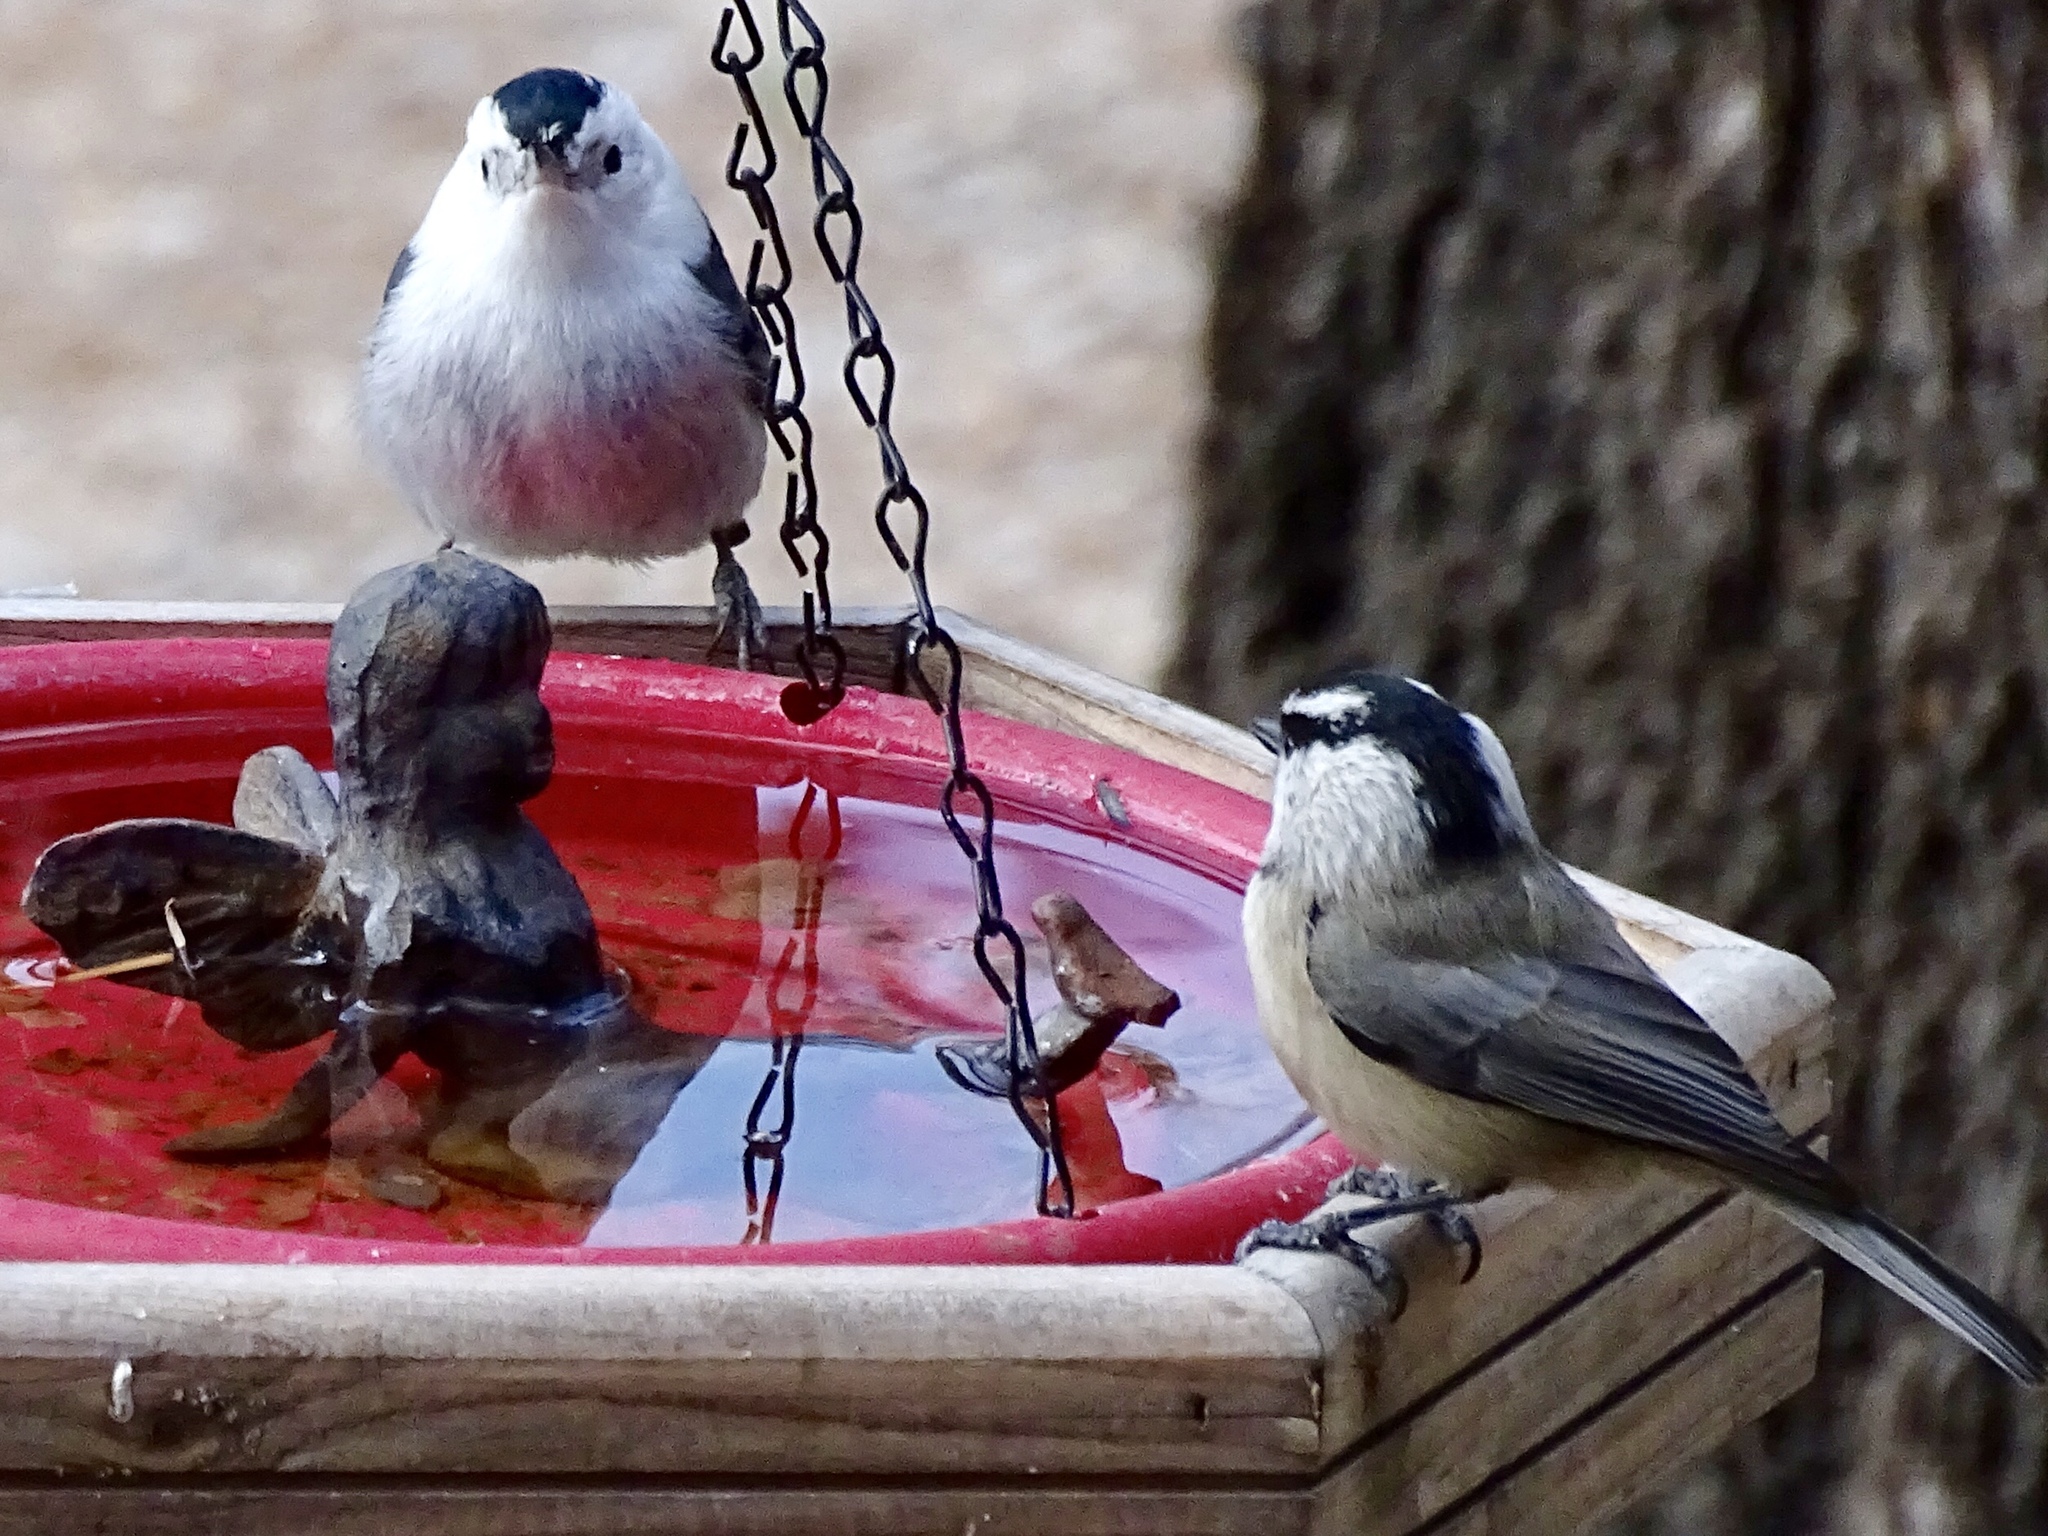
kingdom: Animalia
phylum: Chordata
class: Aves
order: Passeriformes
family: Paridae
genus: Poecile
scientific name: Poecile gambeli
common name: Mountain chickadee
